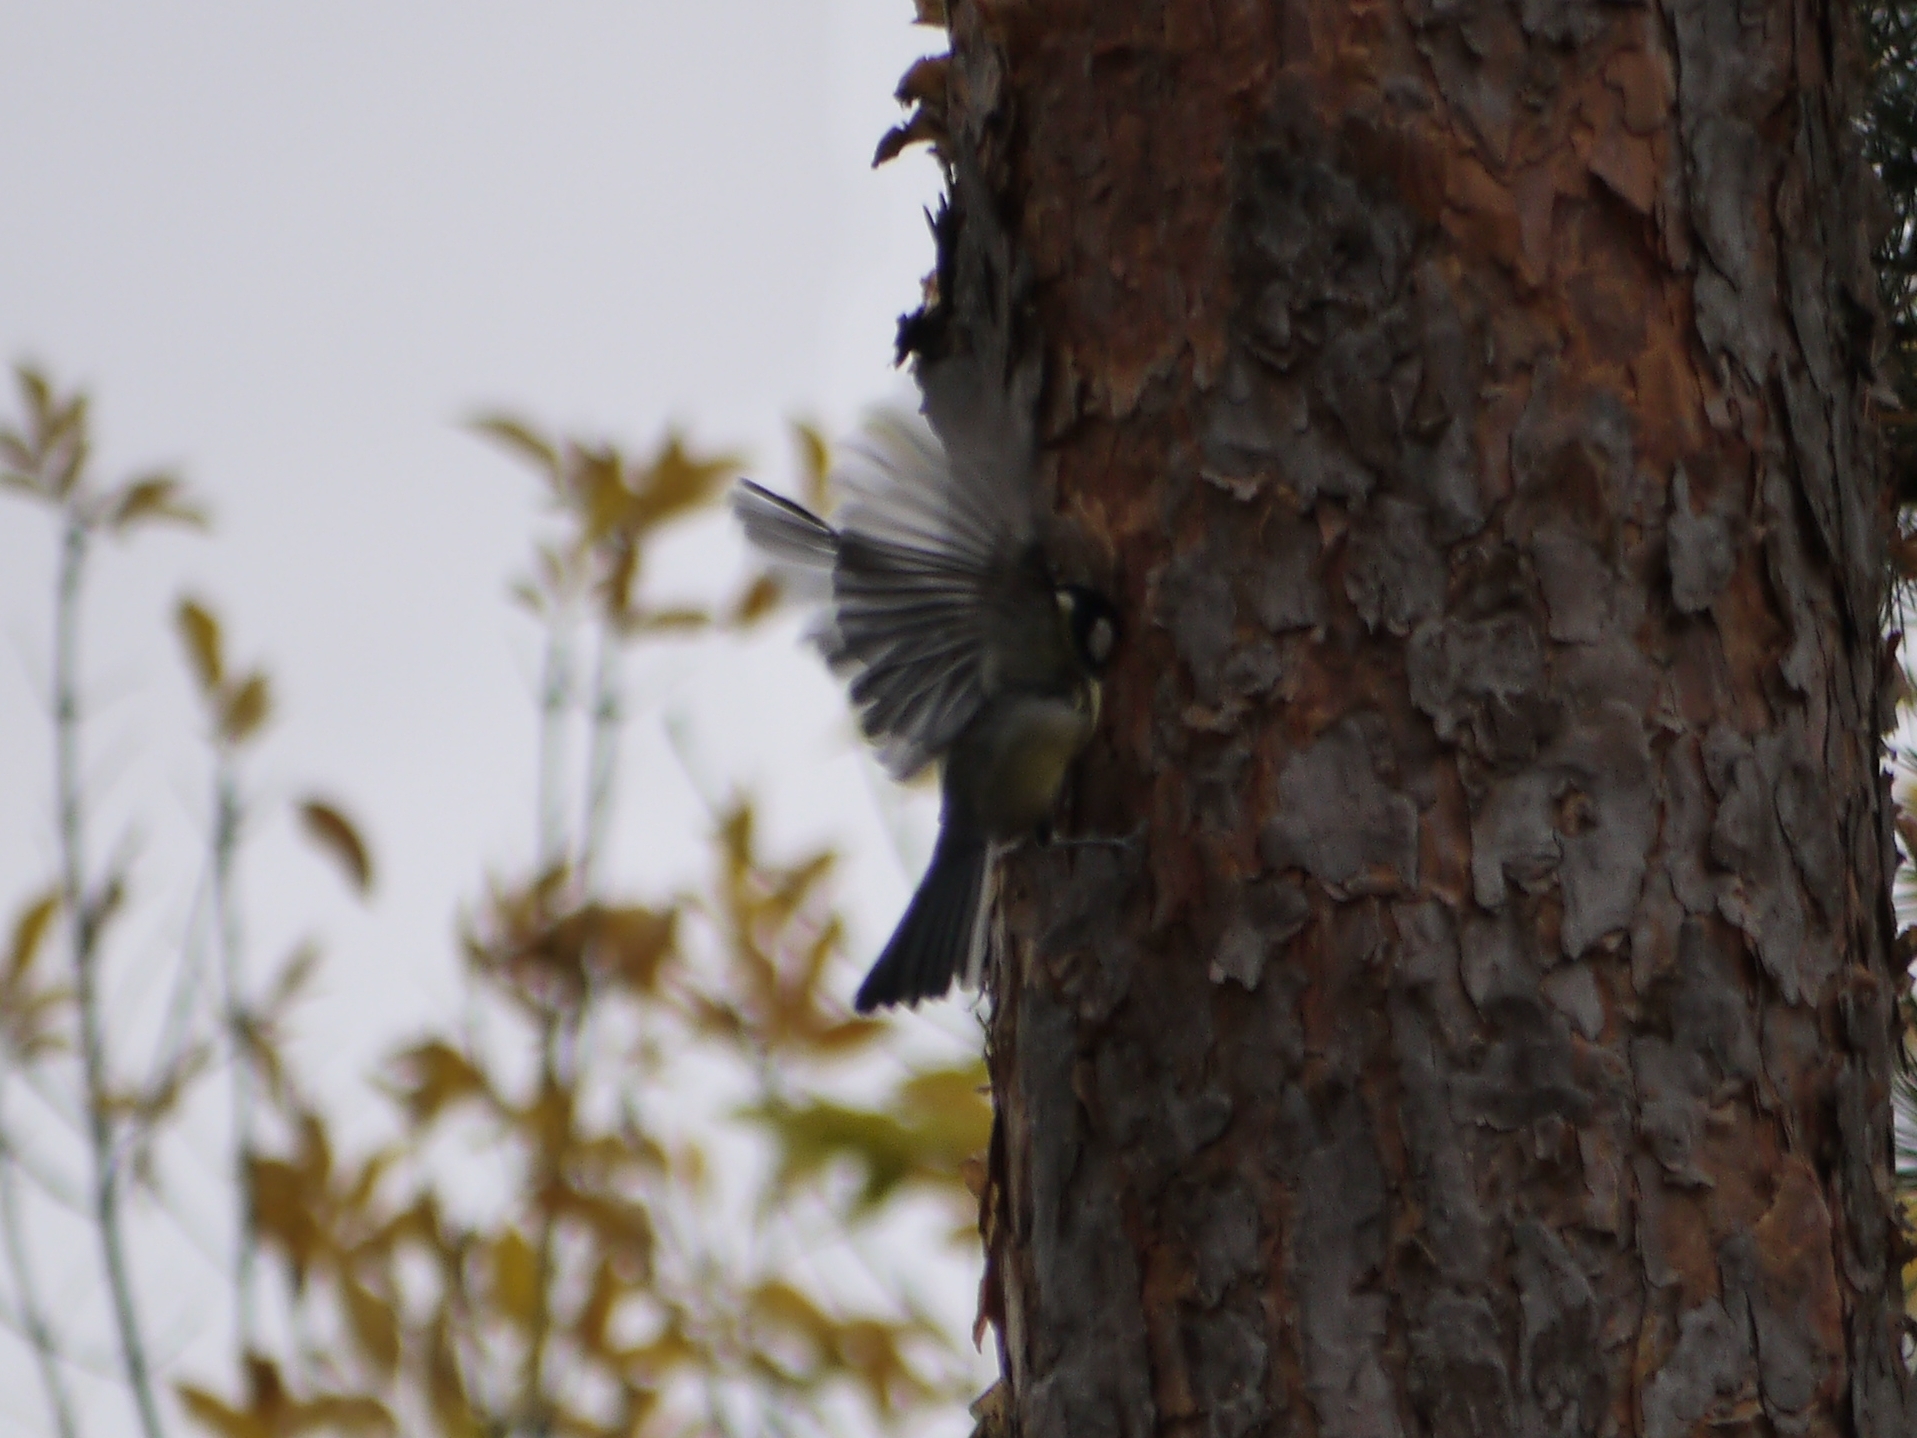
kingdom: Animalia
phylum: Chordata
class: Aves
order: Passeriformes
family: Paridae
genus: Parus
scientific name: Parus major
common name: Great tit
